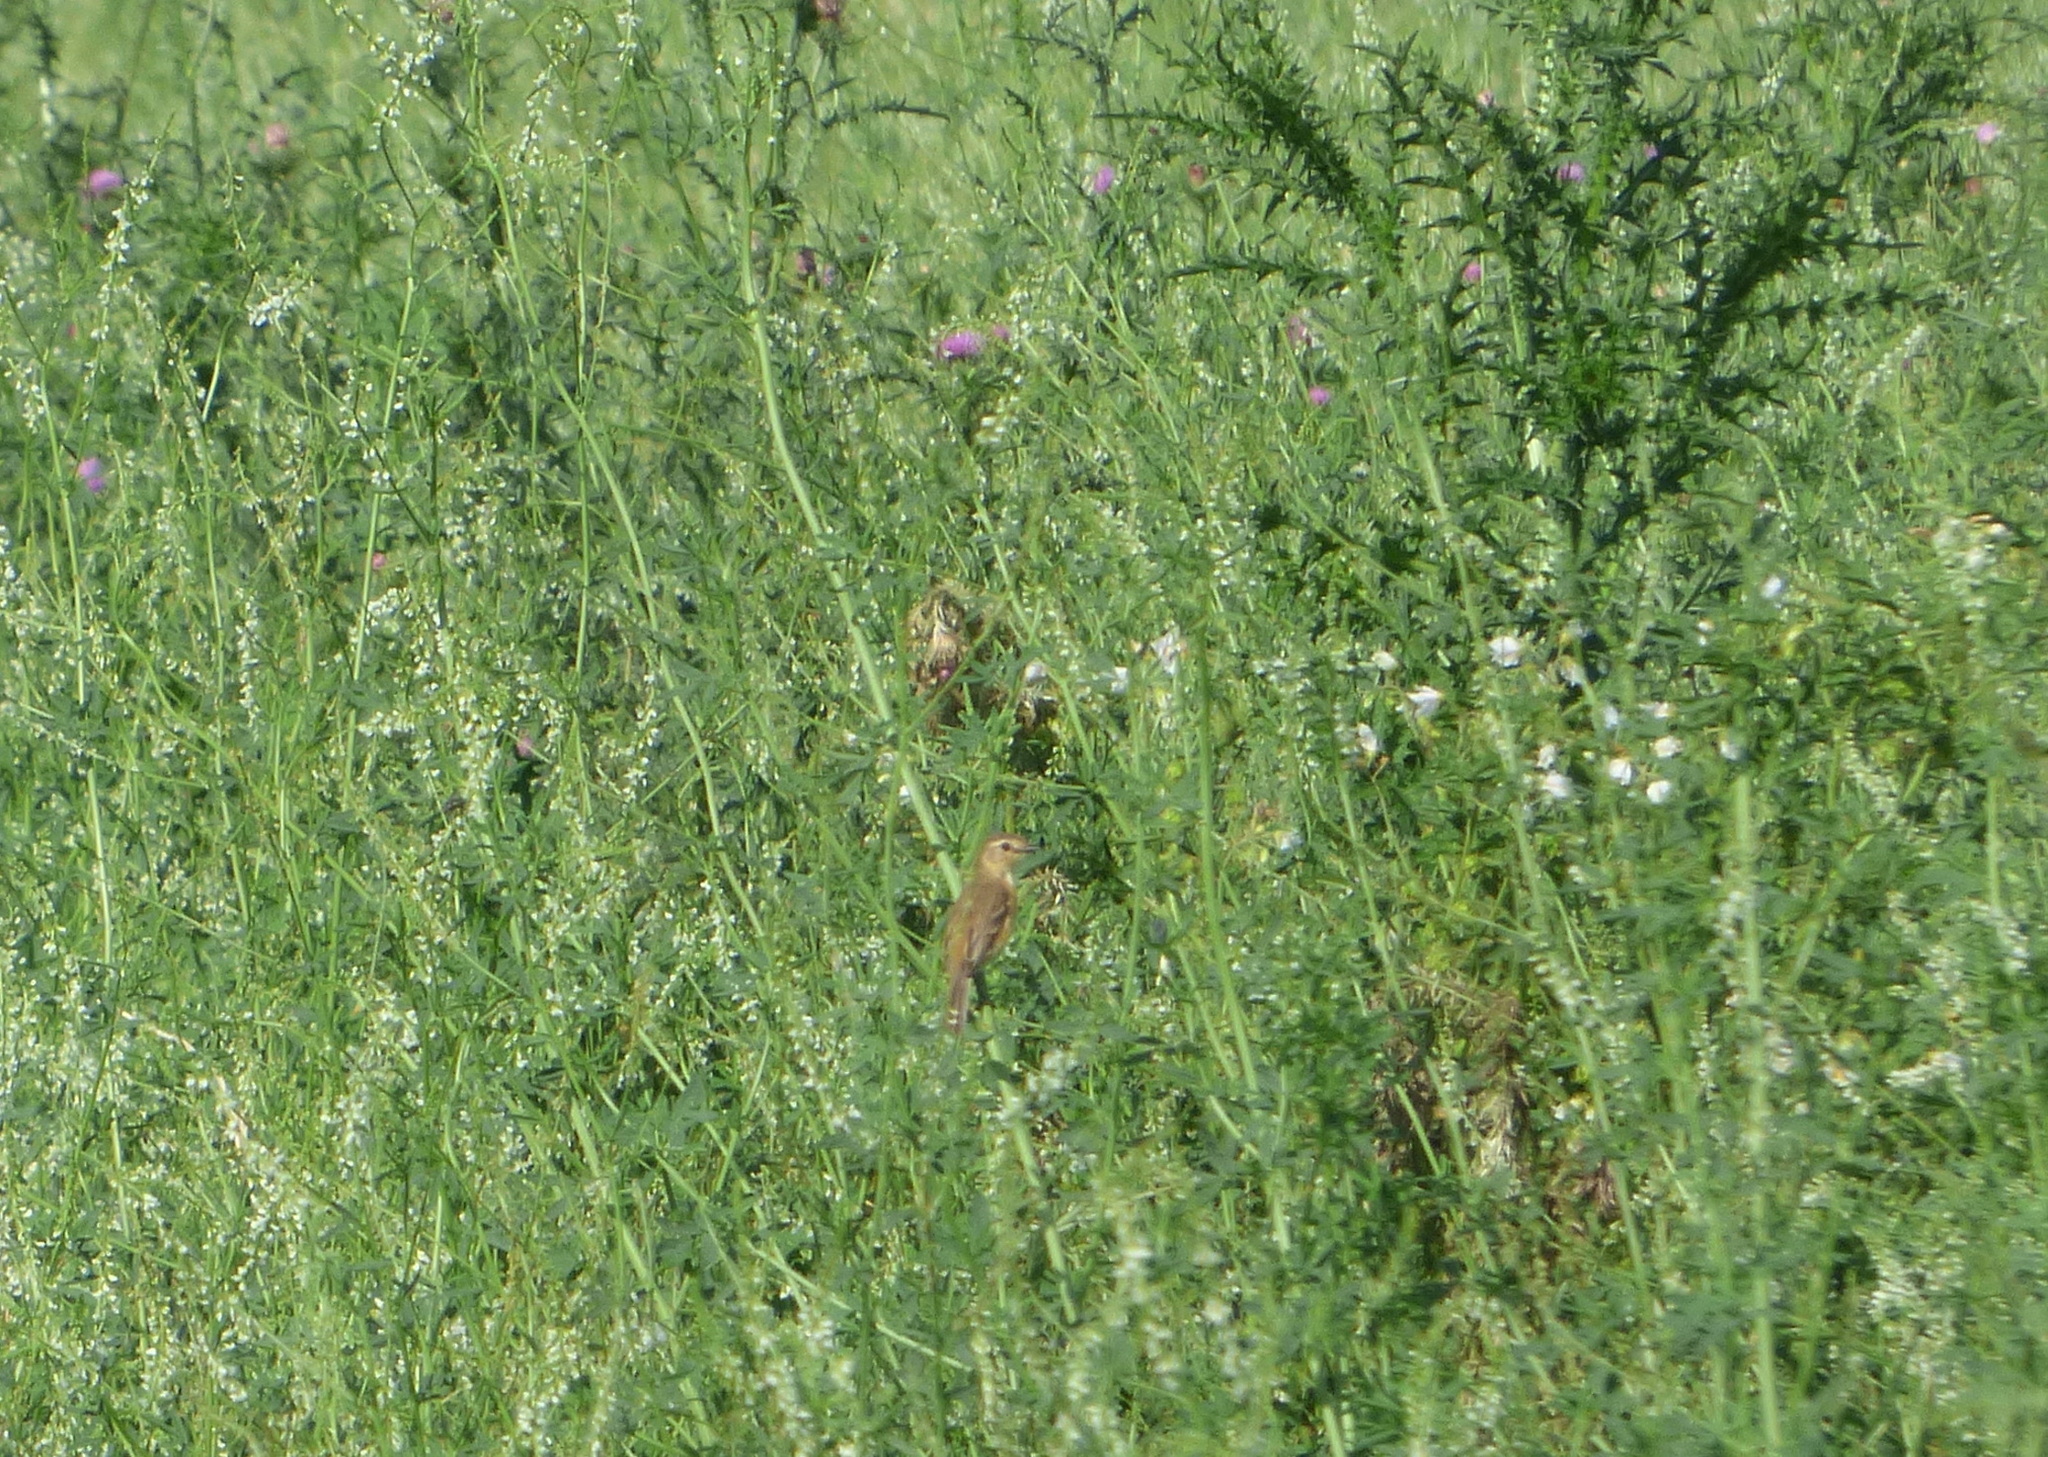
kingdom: Animalia
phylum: Chordata
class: Aves
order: Passeriformes
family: Tyrannidae
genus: Polystictus
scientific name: Polystictus pectoralis
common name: Bearded tachuri
